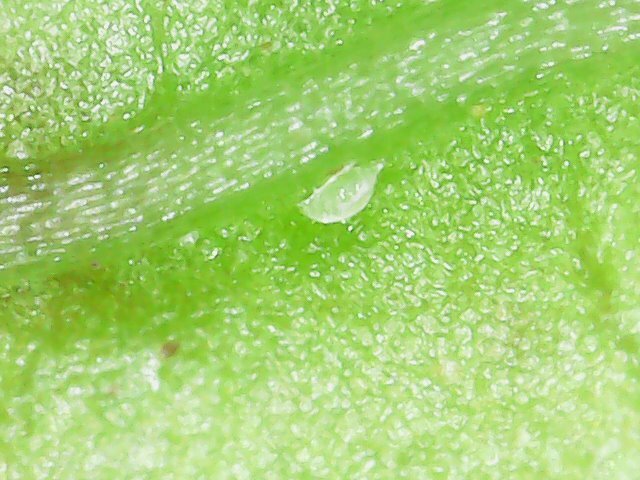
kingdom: Animalia
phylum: Arthropoda
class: Arachnida
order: Trombidiformes
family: Tarsonemidae
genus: Polyphagotarsonemus
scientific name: Polyphagotarsonemus latus
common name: Mite
